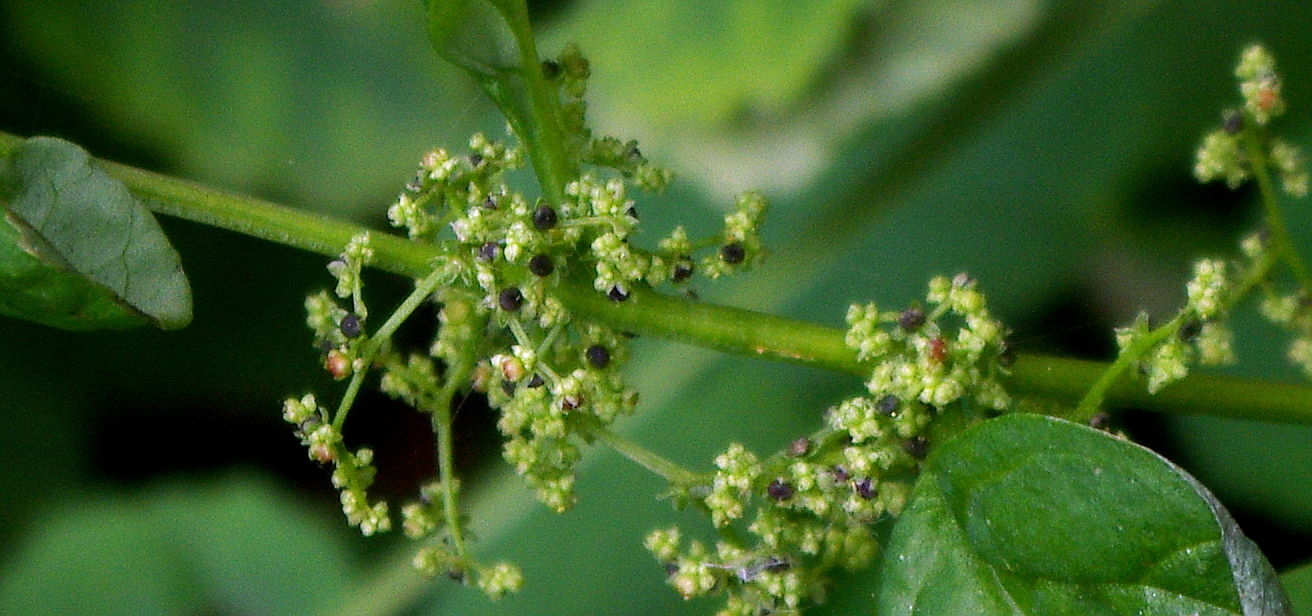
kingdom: Plantae
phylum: Tracheophyta
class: Magnoliopsida
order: Caryophyllales
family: Amaranthaceae
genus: Lipandra
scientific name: Lipandra polysperma
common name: Many-seed goosefoot
